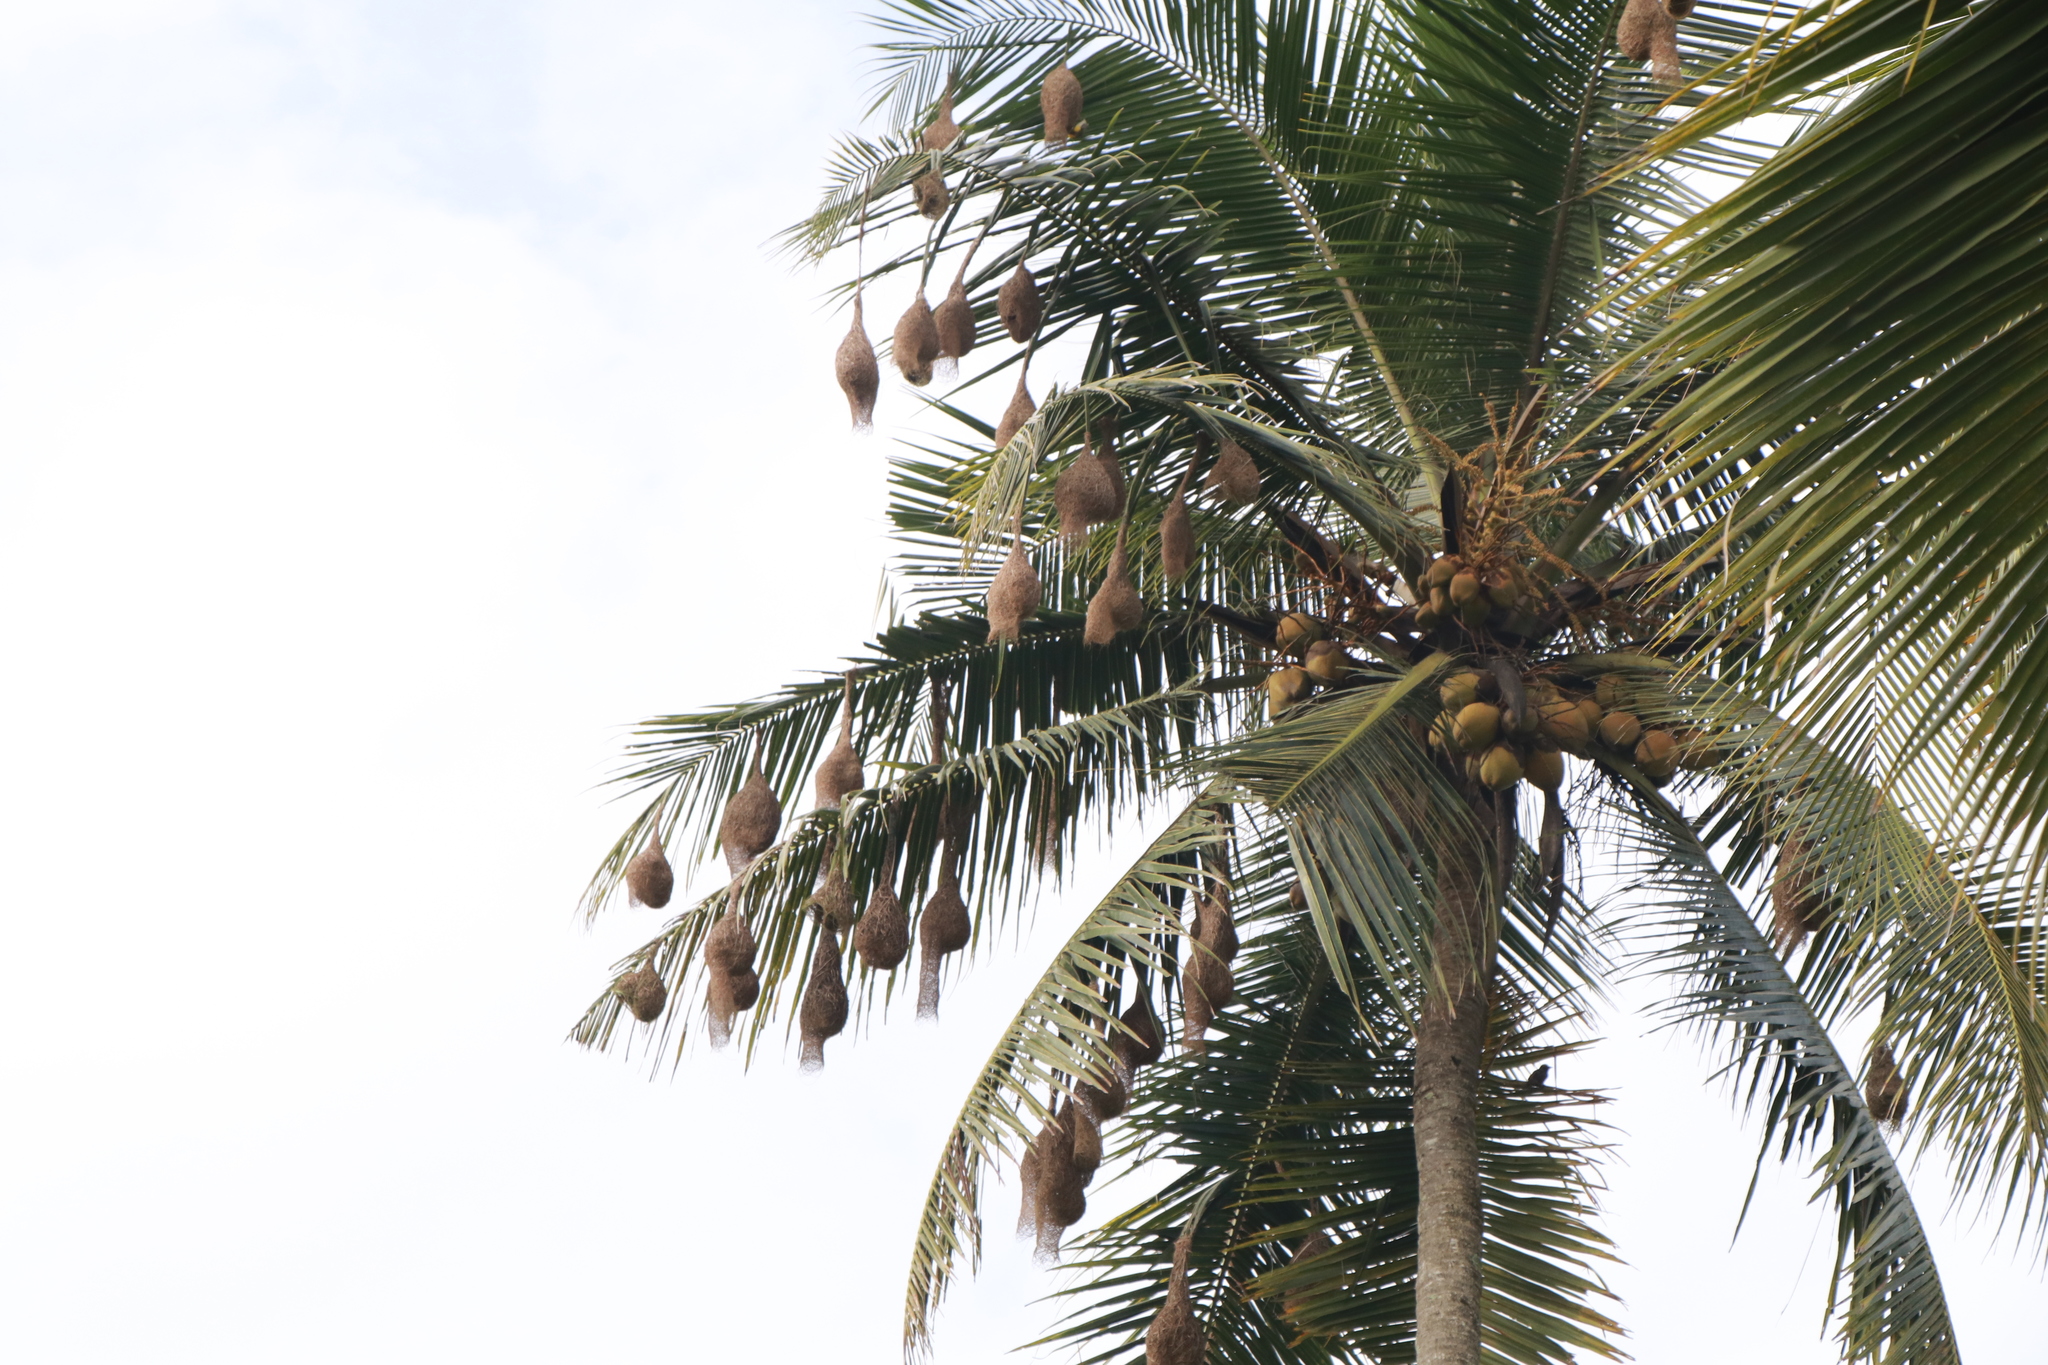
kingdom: Animalia
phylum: Chordata
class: Aves
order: Passeriformes
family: Ploceidae
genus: Ploceus
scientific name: Ploceus philippinus
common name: Baya weaver
